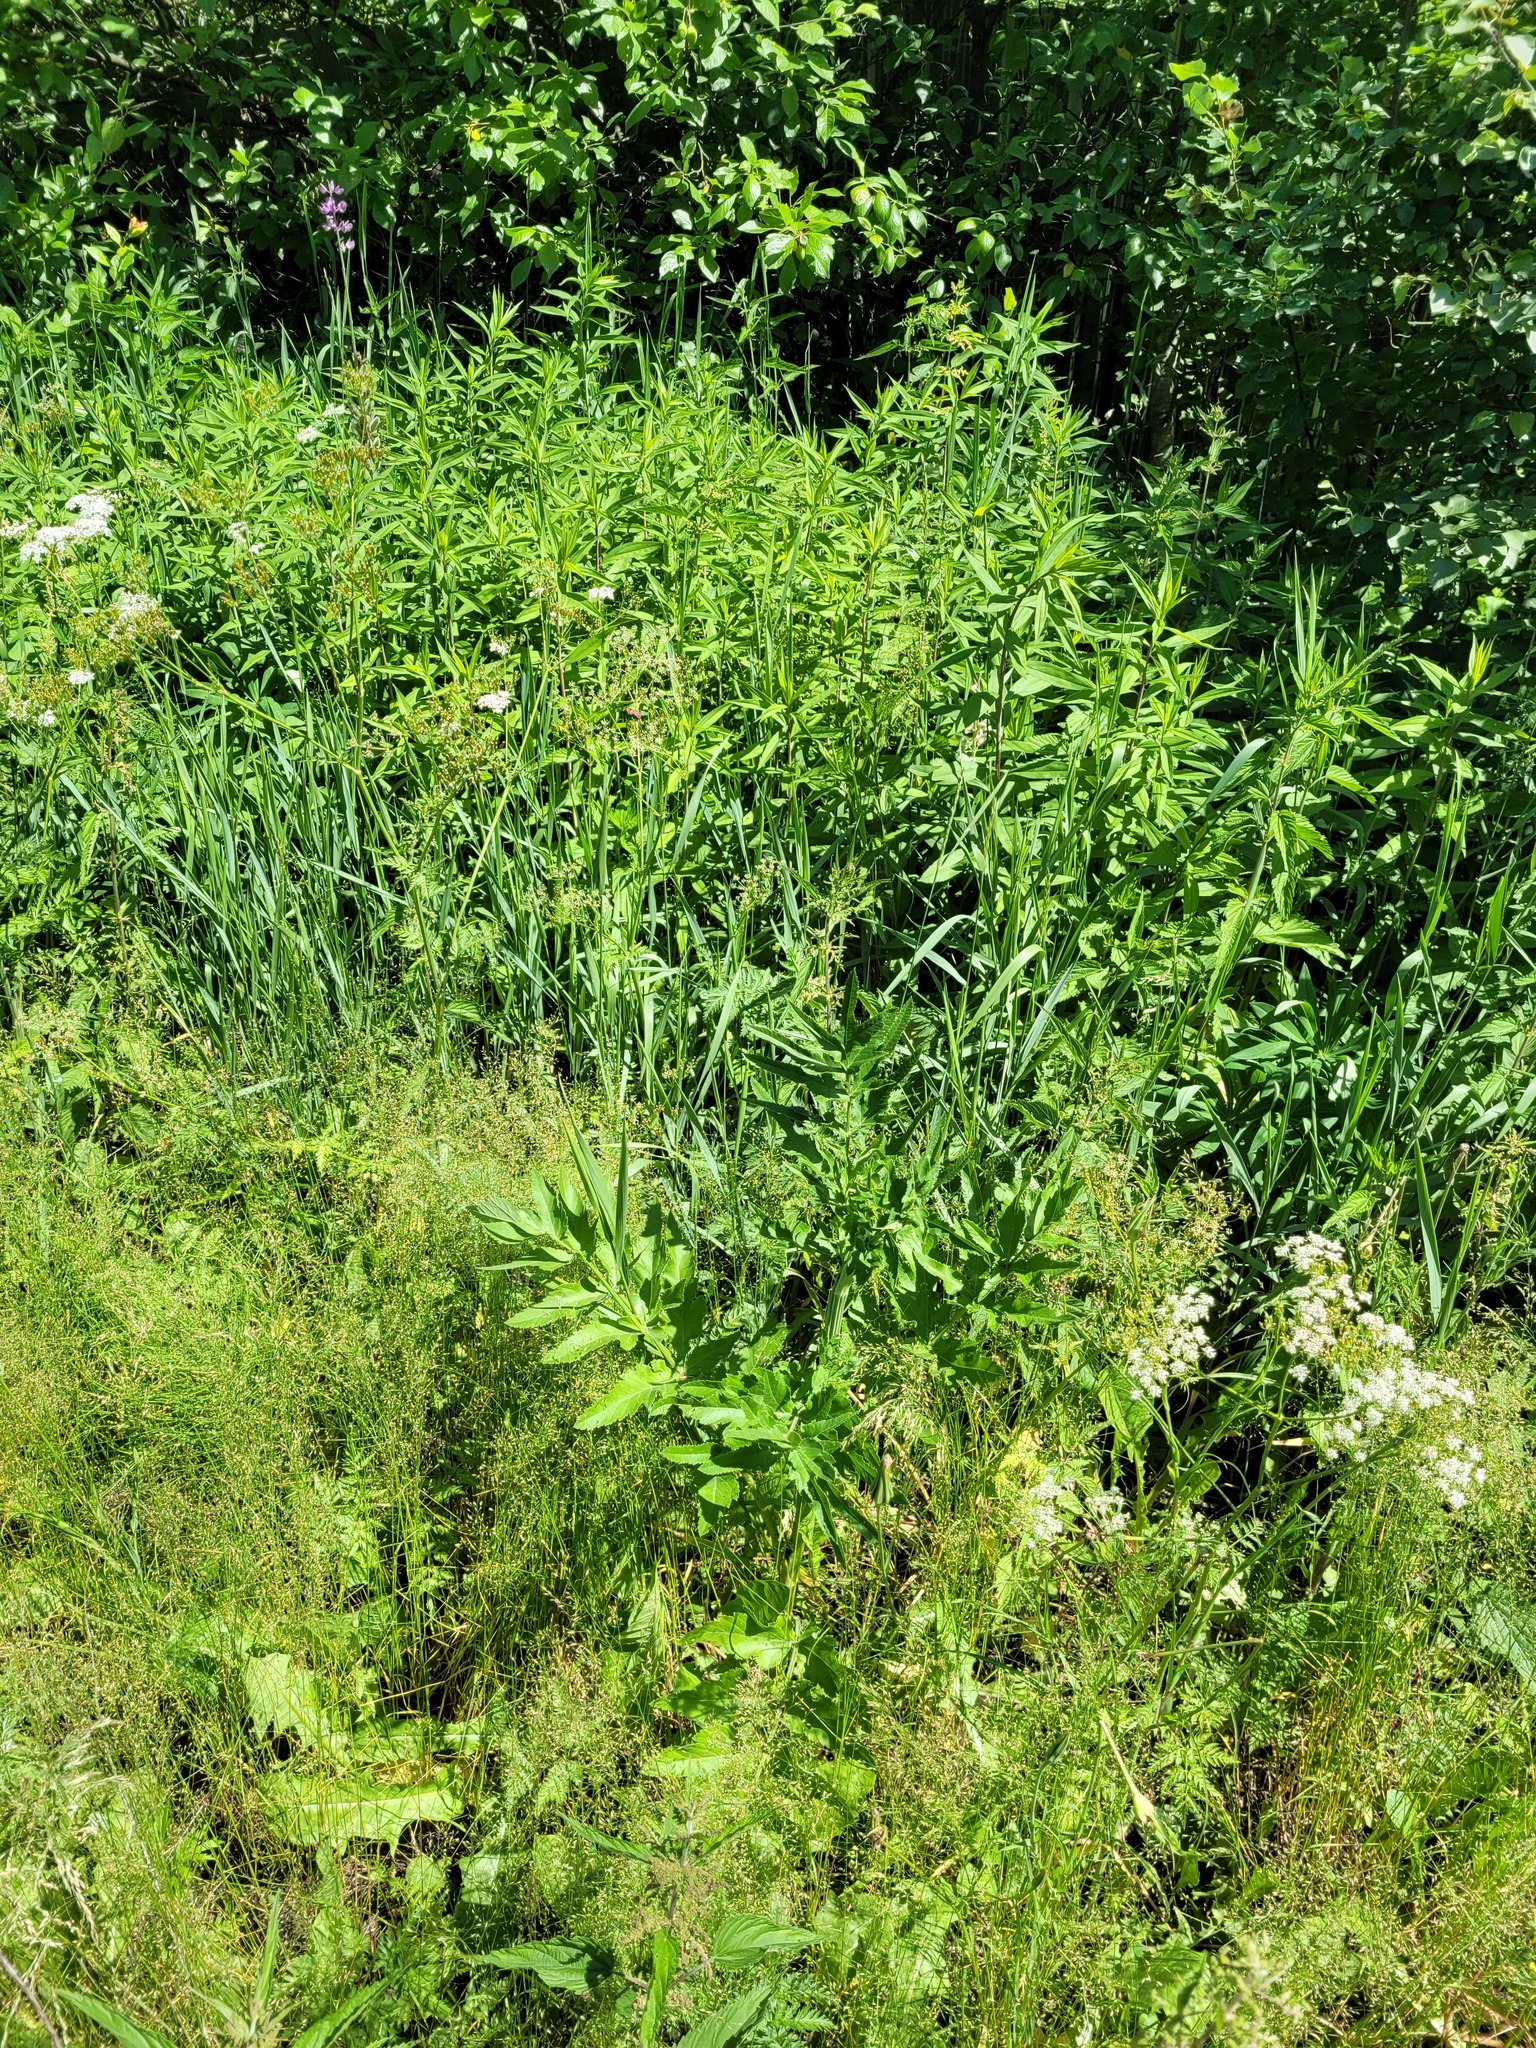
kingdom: Plantae
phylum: Tracheophyta
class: Magnoliopsida
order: Apiales
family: Apiaceae
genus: Pastinaca
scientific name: Pastinaca sativa
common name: Wild parsnip
